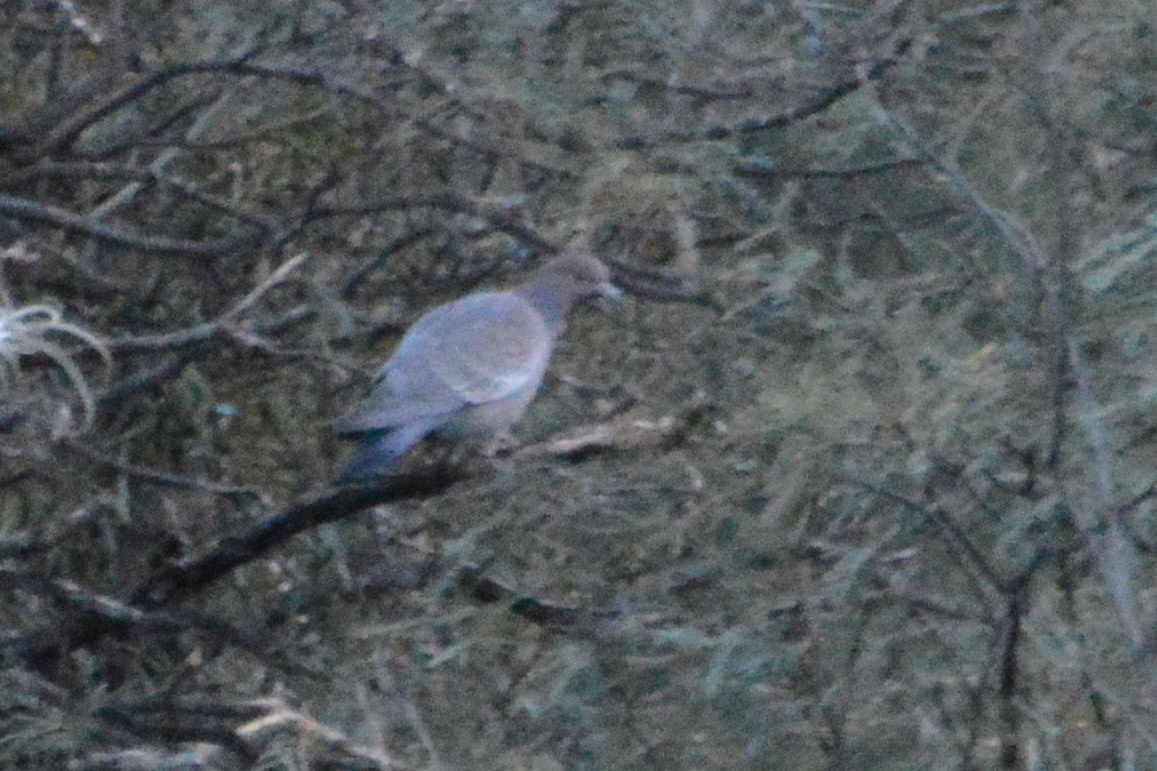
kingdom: Animalia
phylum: Chordata
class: Aves
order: Columbiformes
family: Columbidae
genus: Patagioenas
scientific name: Patagioenas picazuro
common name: Picazuro pigeon
